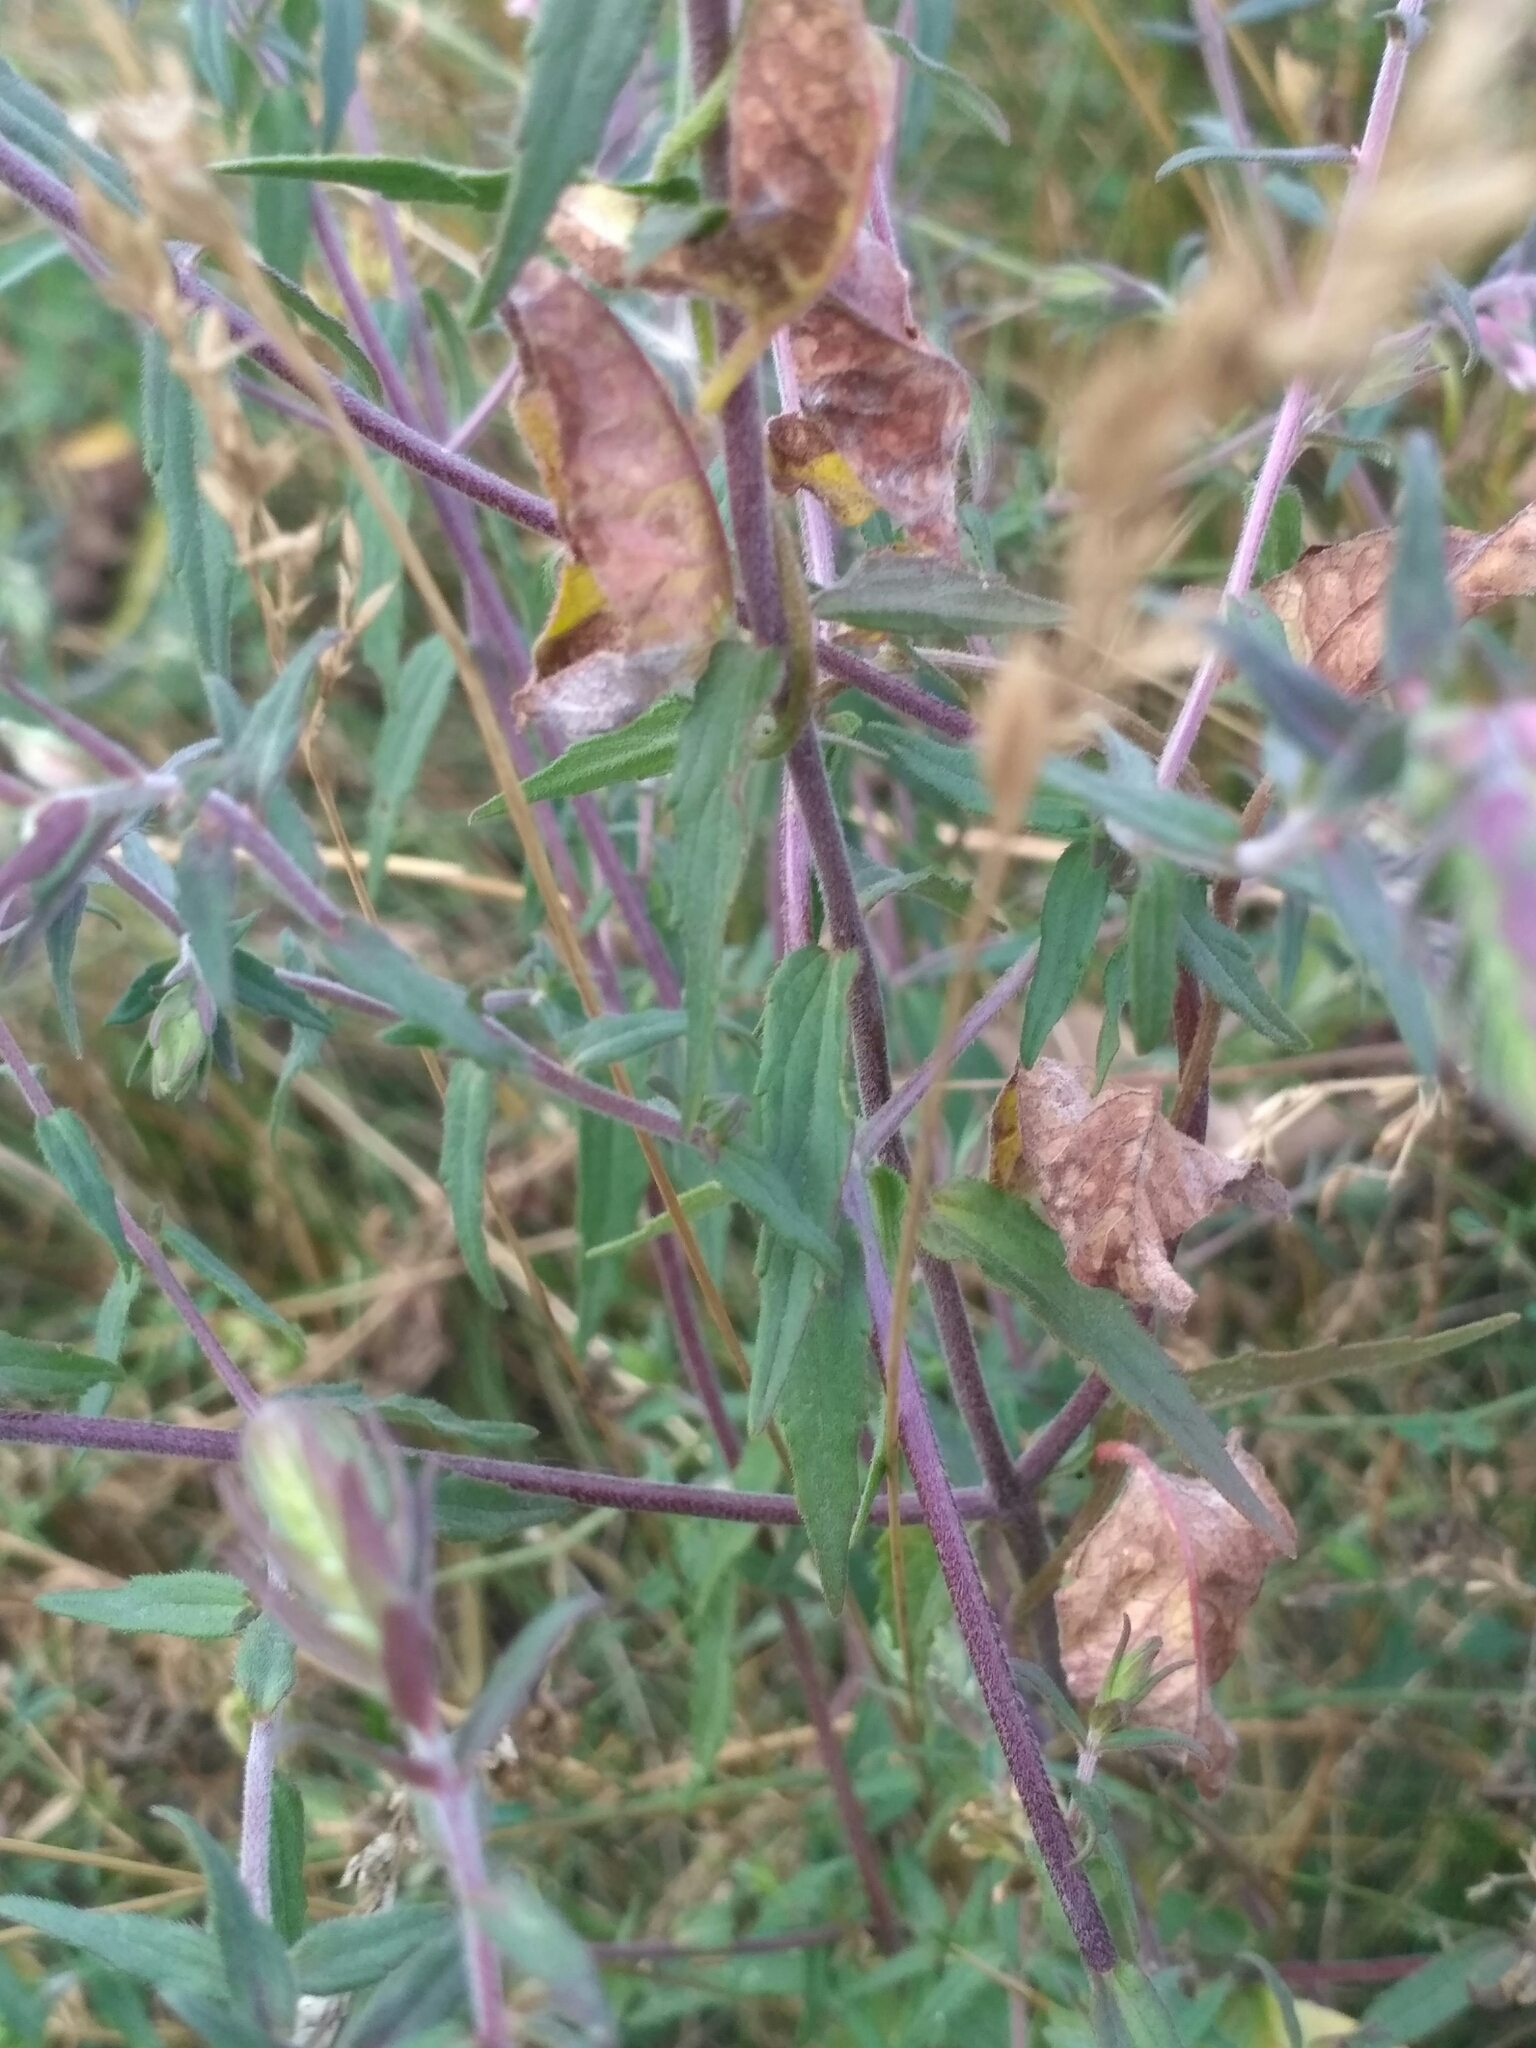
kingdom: Plantae
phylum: Tracheophyta
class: Magnoliopsida
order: Lamiales
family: Orobanchaceae
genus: Odontites
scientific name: Odontites vulgaris
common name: Broomrape
